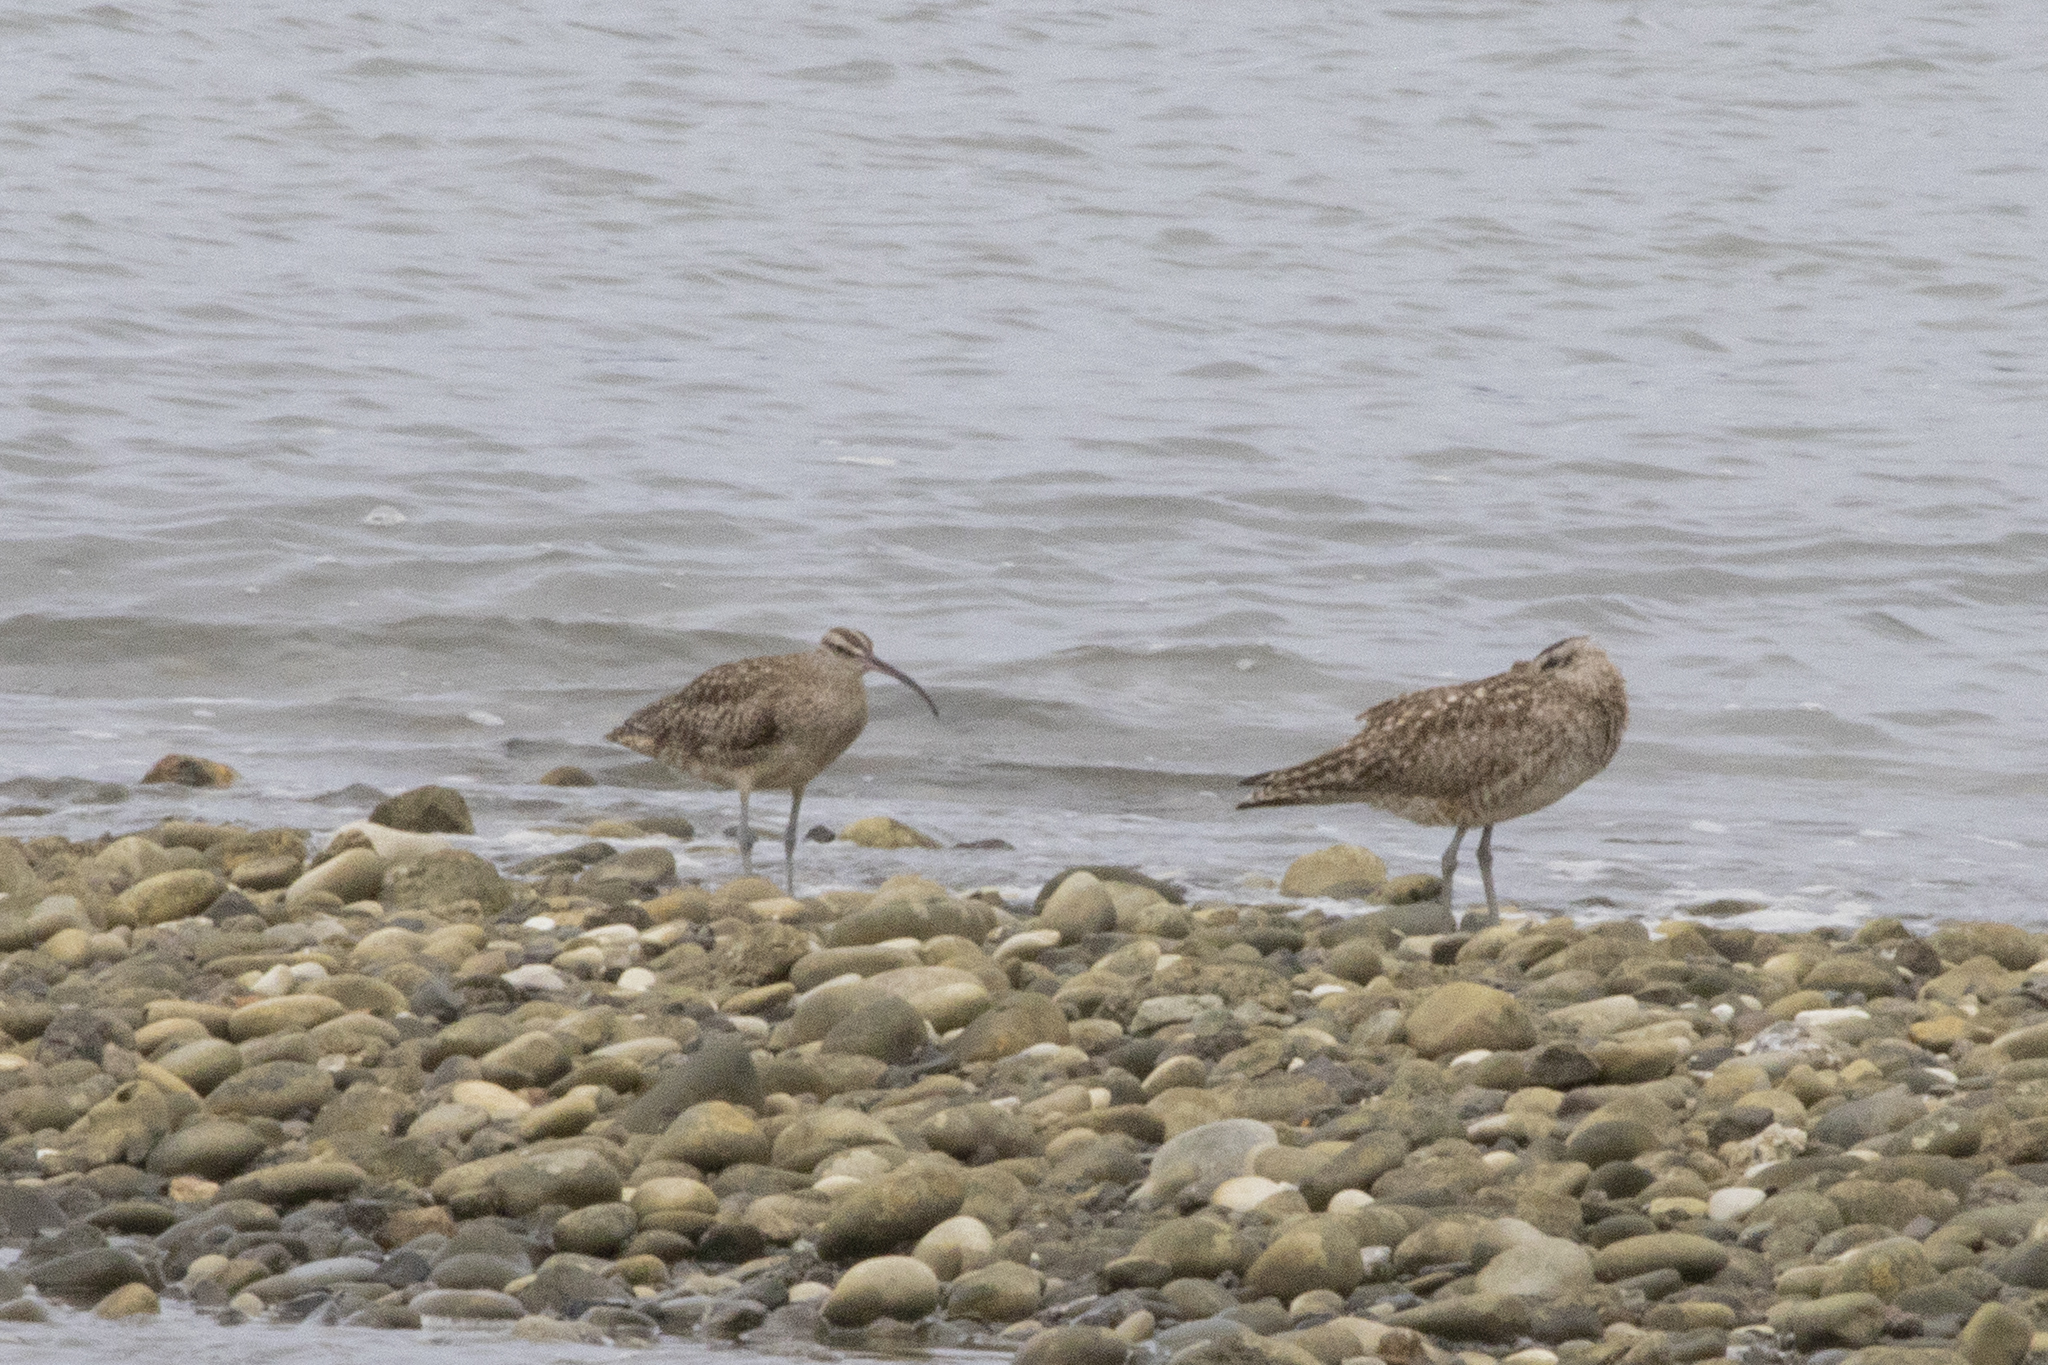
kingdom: Animalia
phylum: Chordata
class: Aves
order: Charadriiformes
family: Scolopacidae
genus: Numenius
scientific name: Numenius phaeopus
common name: Whimbrel
